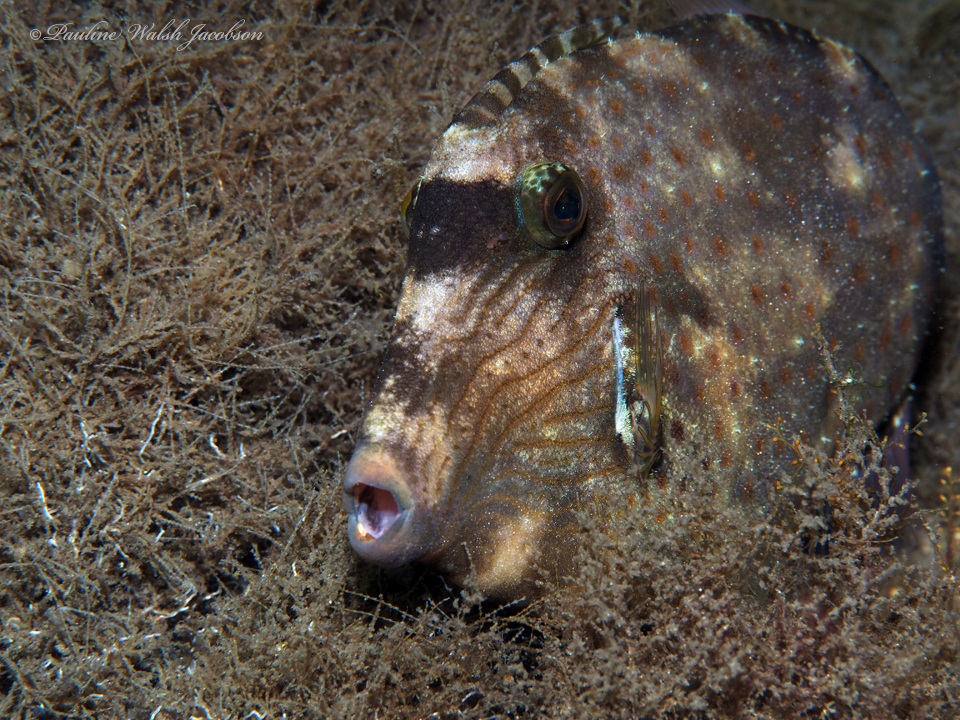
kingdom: Animalia
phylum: Chordata
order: Tetraodontiformes
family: Monacanthidae
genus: Cantherhines
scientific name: Cantherhines pullus
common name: Orangespotted filefish
